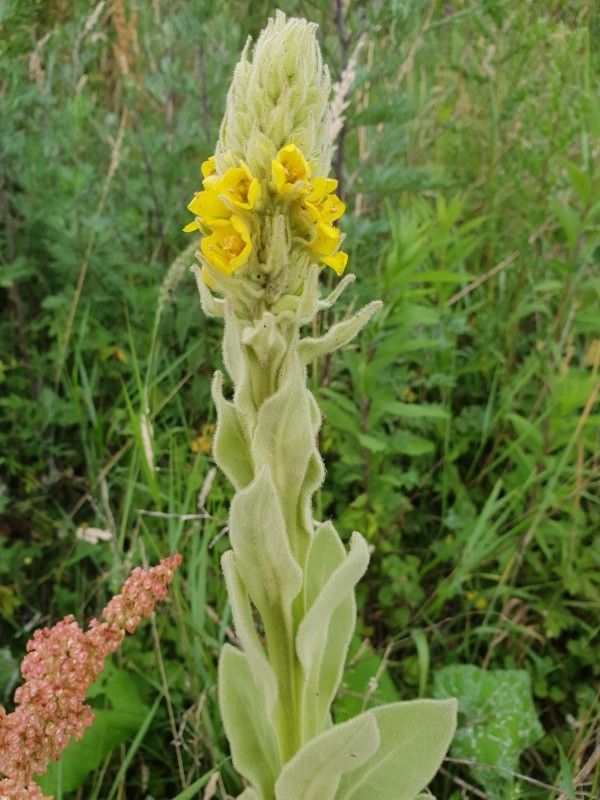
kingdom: Plantae
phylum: Tracheophyta
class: Magnoliopsida
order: Lamiales
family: Scrophulariaceae
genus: Verbascum
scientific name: Verbascum thapsus
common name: Common mullein
